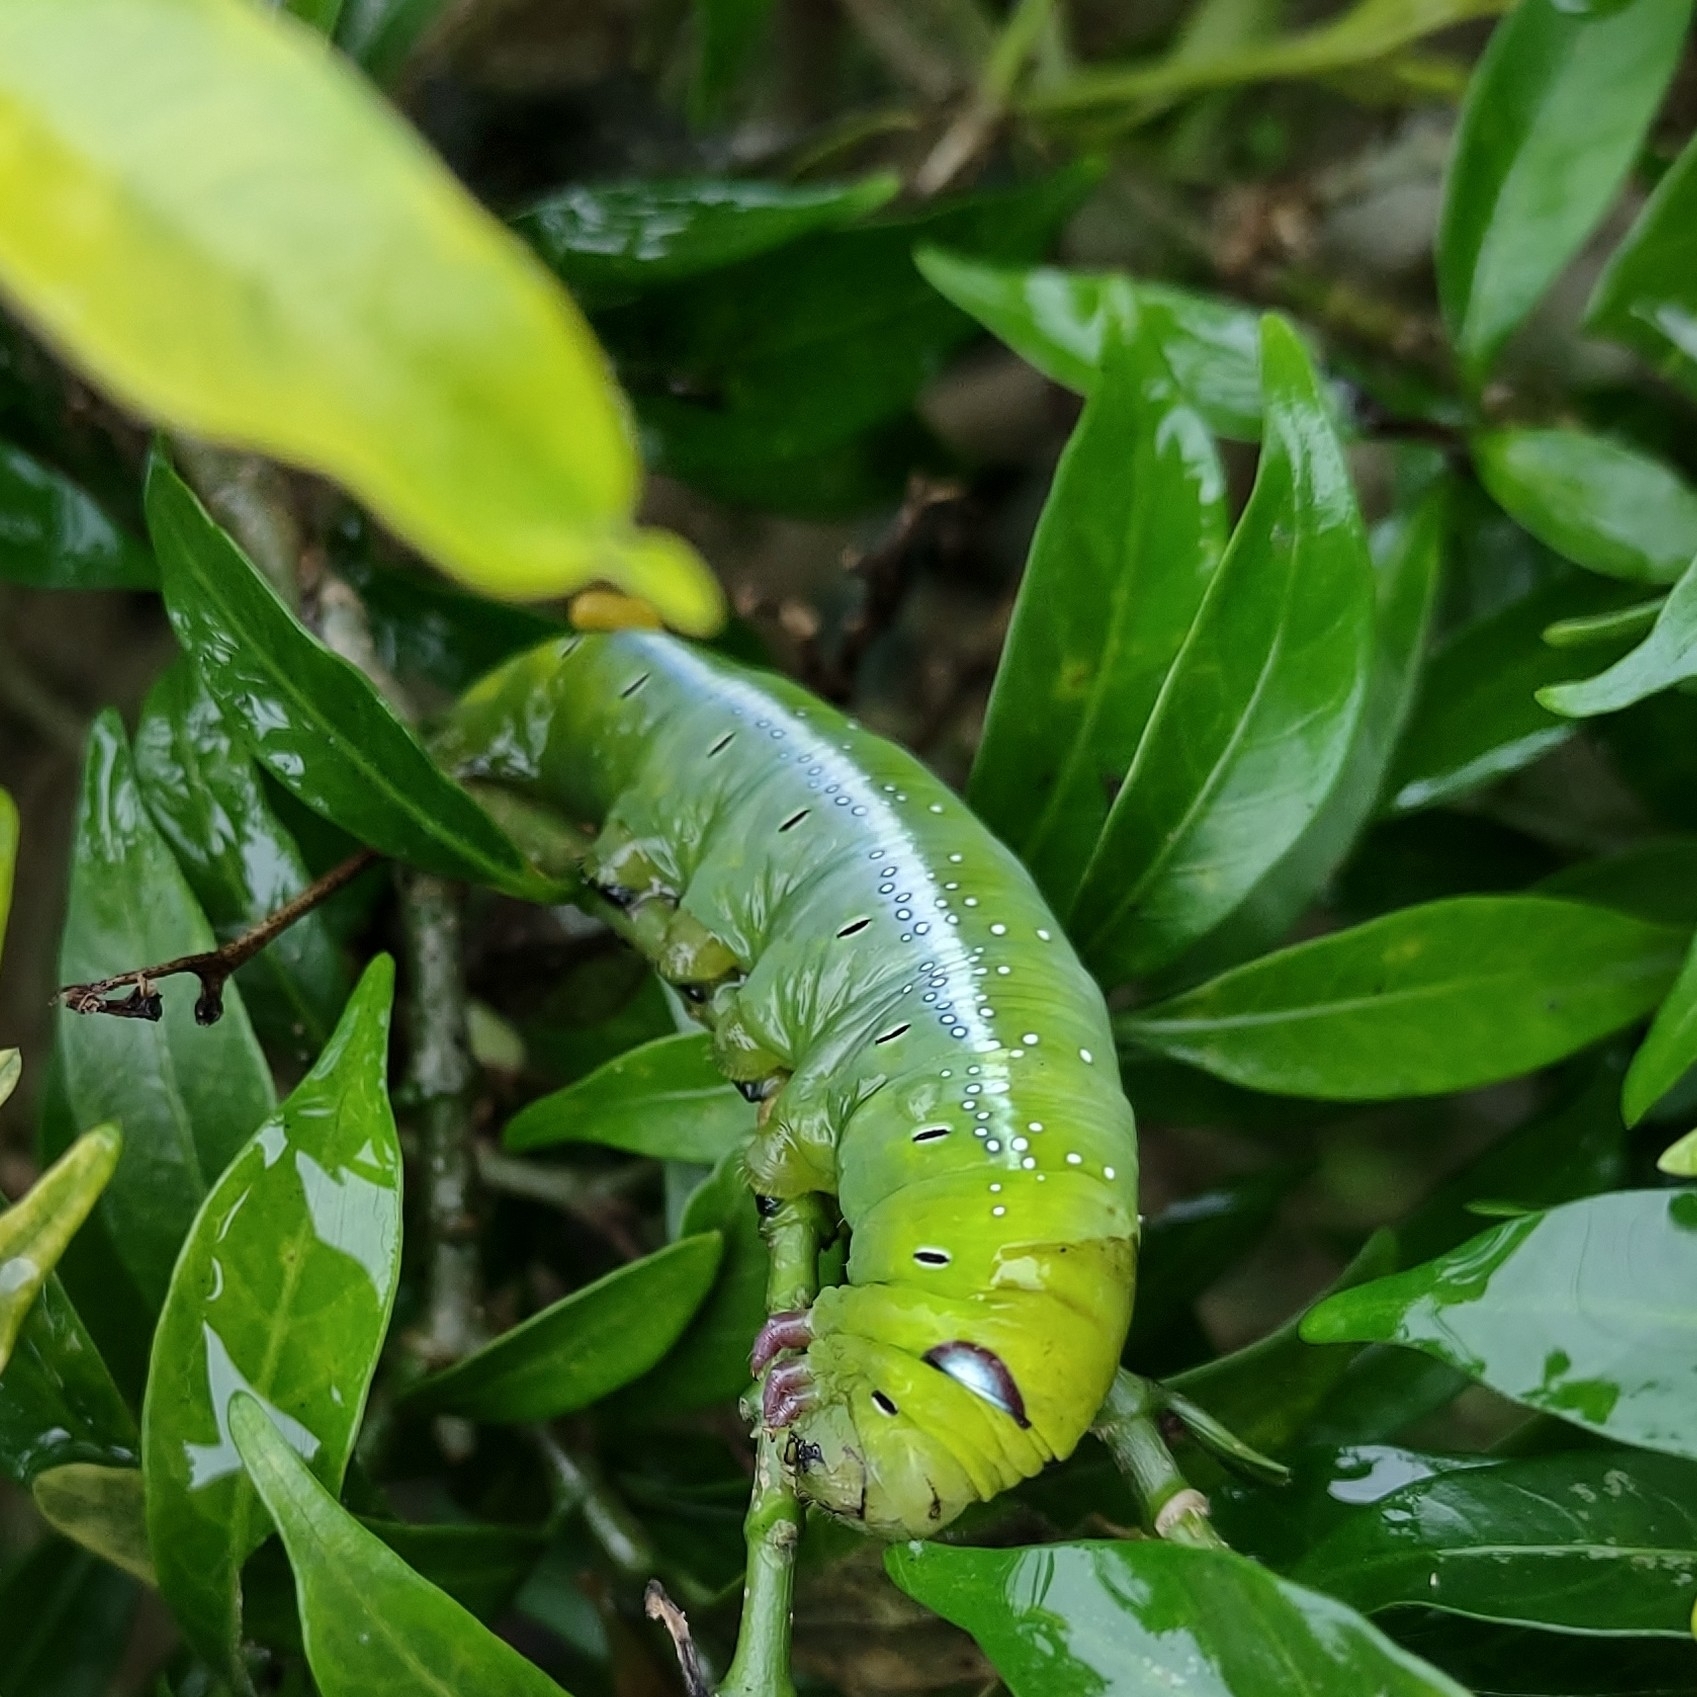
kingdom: Animalia
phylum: Arthropoda
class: Insecta
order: Lepidoptera
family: Sphingidae
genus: Daphnis
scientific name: Daphnis nerii
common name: Oleander hawk-moth
